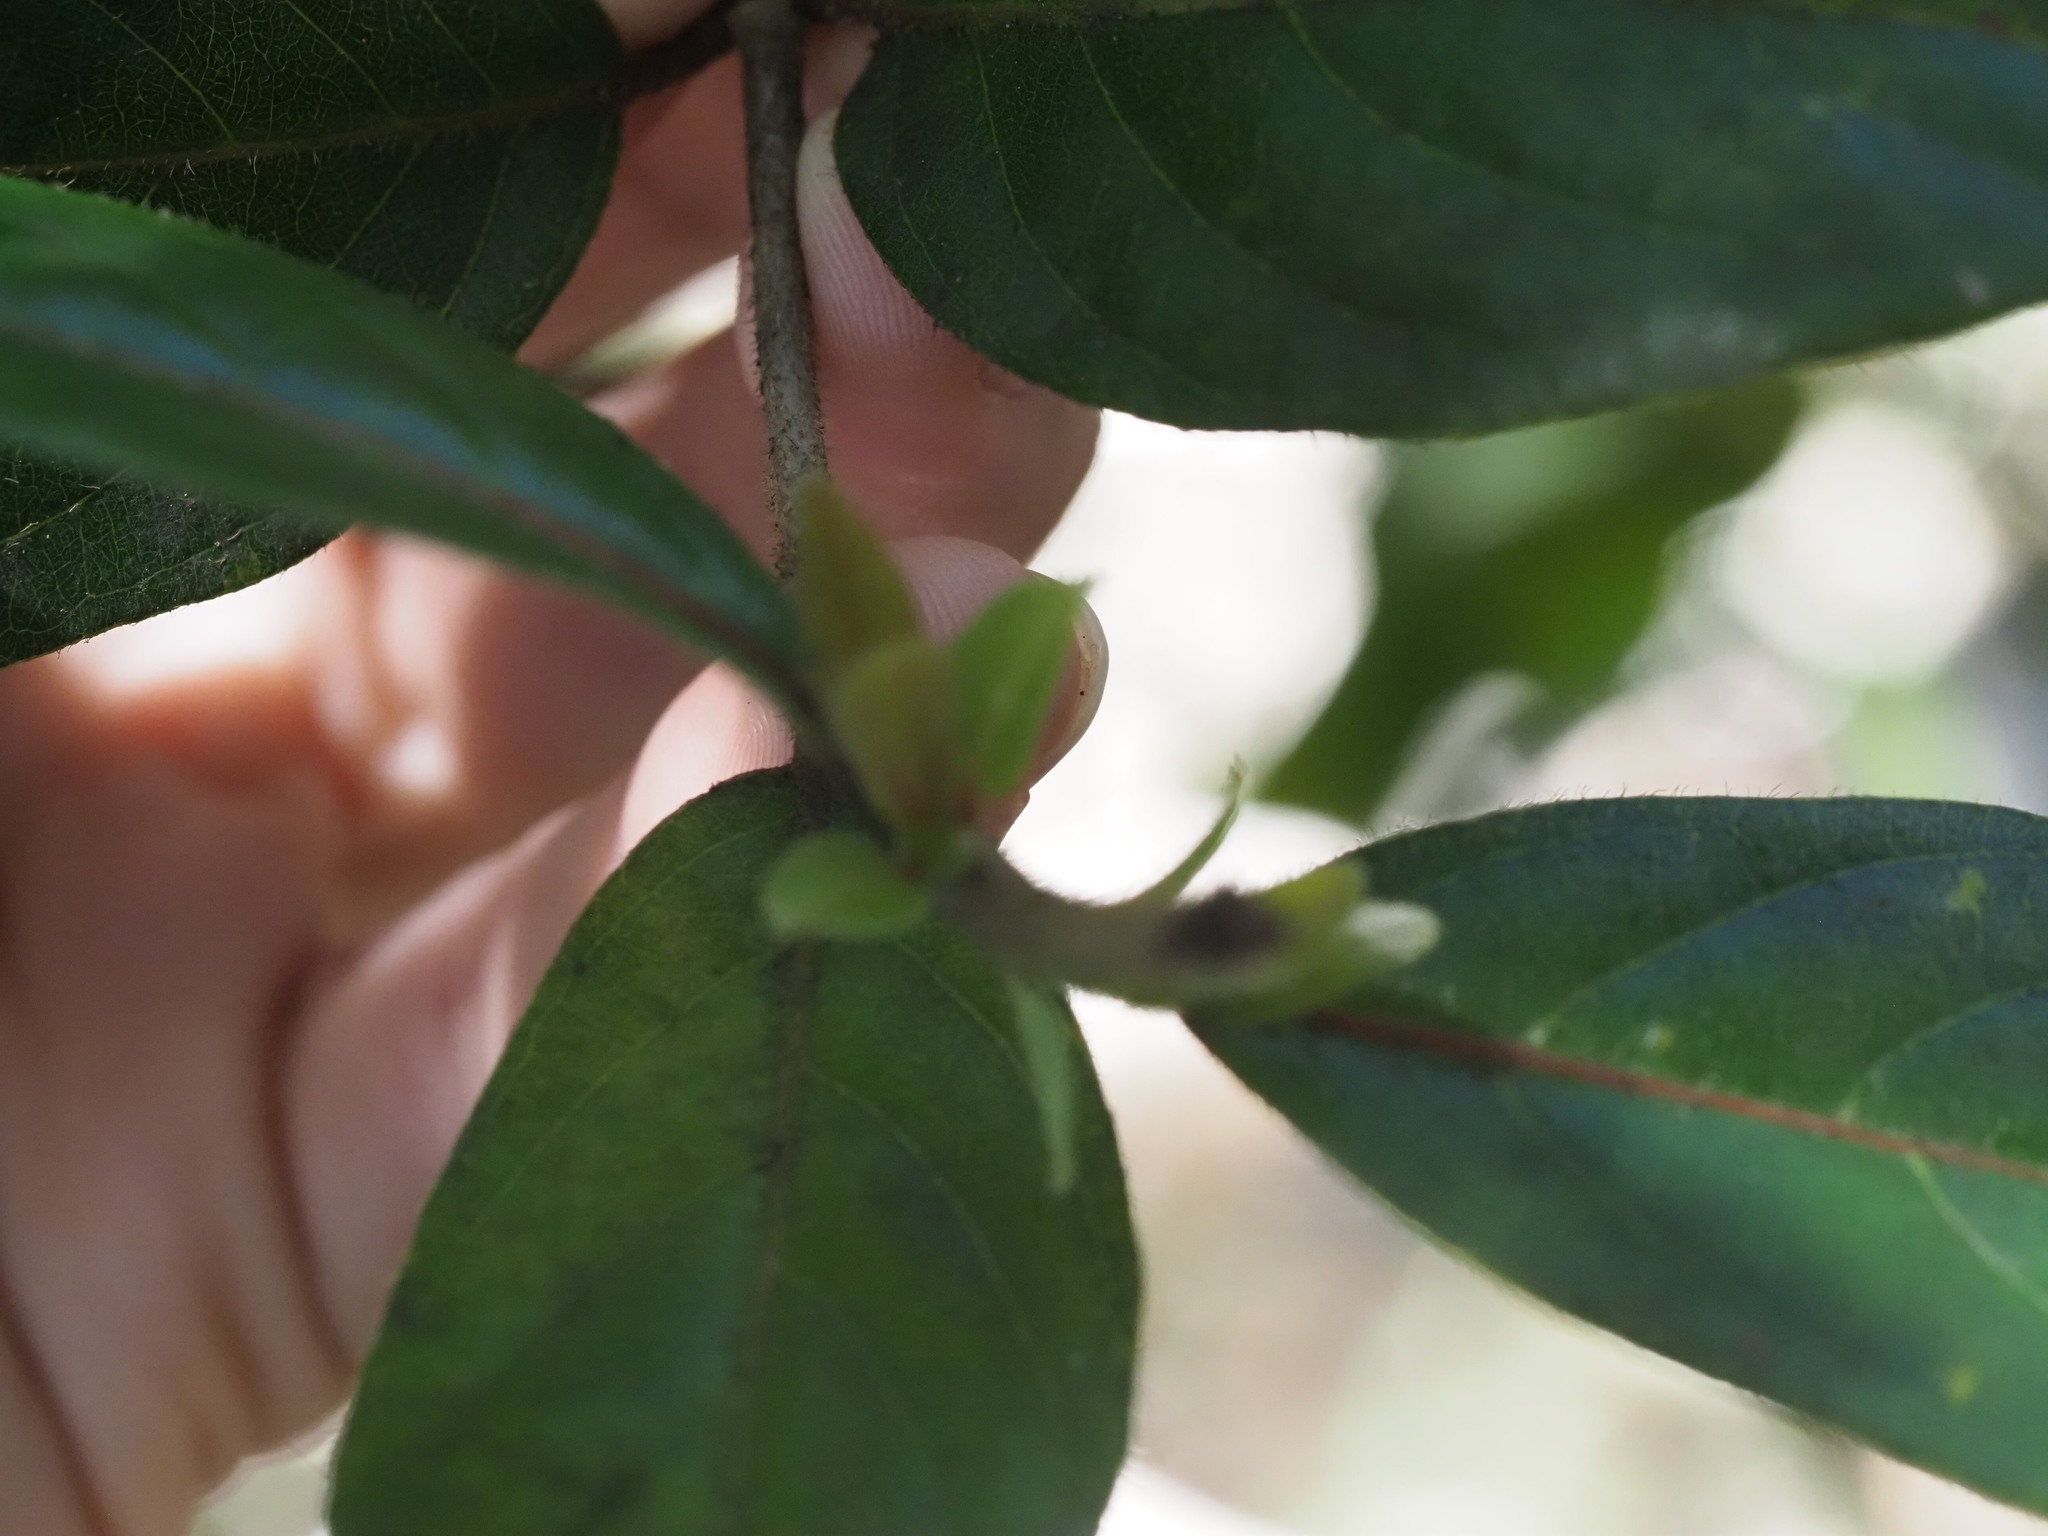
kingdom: Plantae
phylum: Tracheophyta
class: Magnoliopsida
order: Gentianales
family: Rubiaceae
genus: Bobea
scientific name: Bobea brevipes
